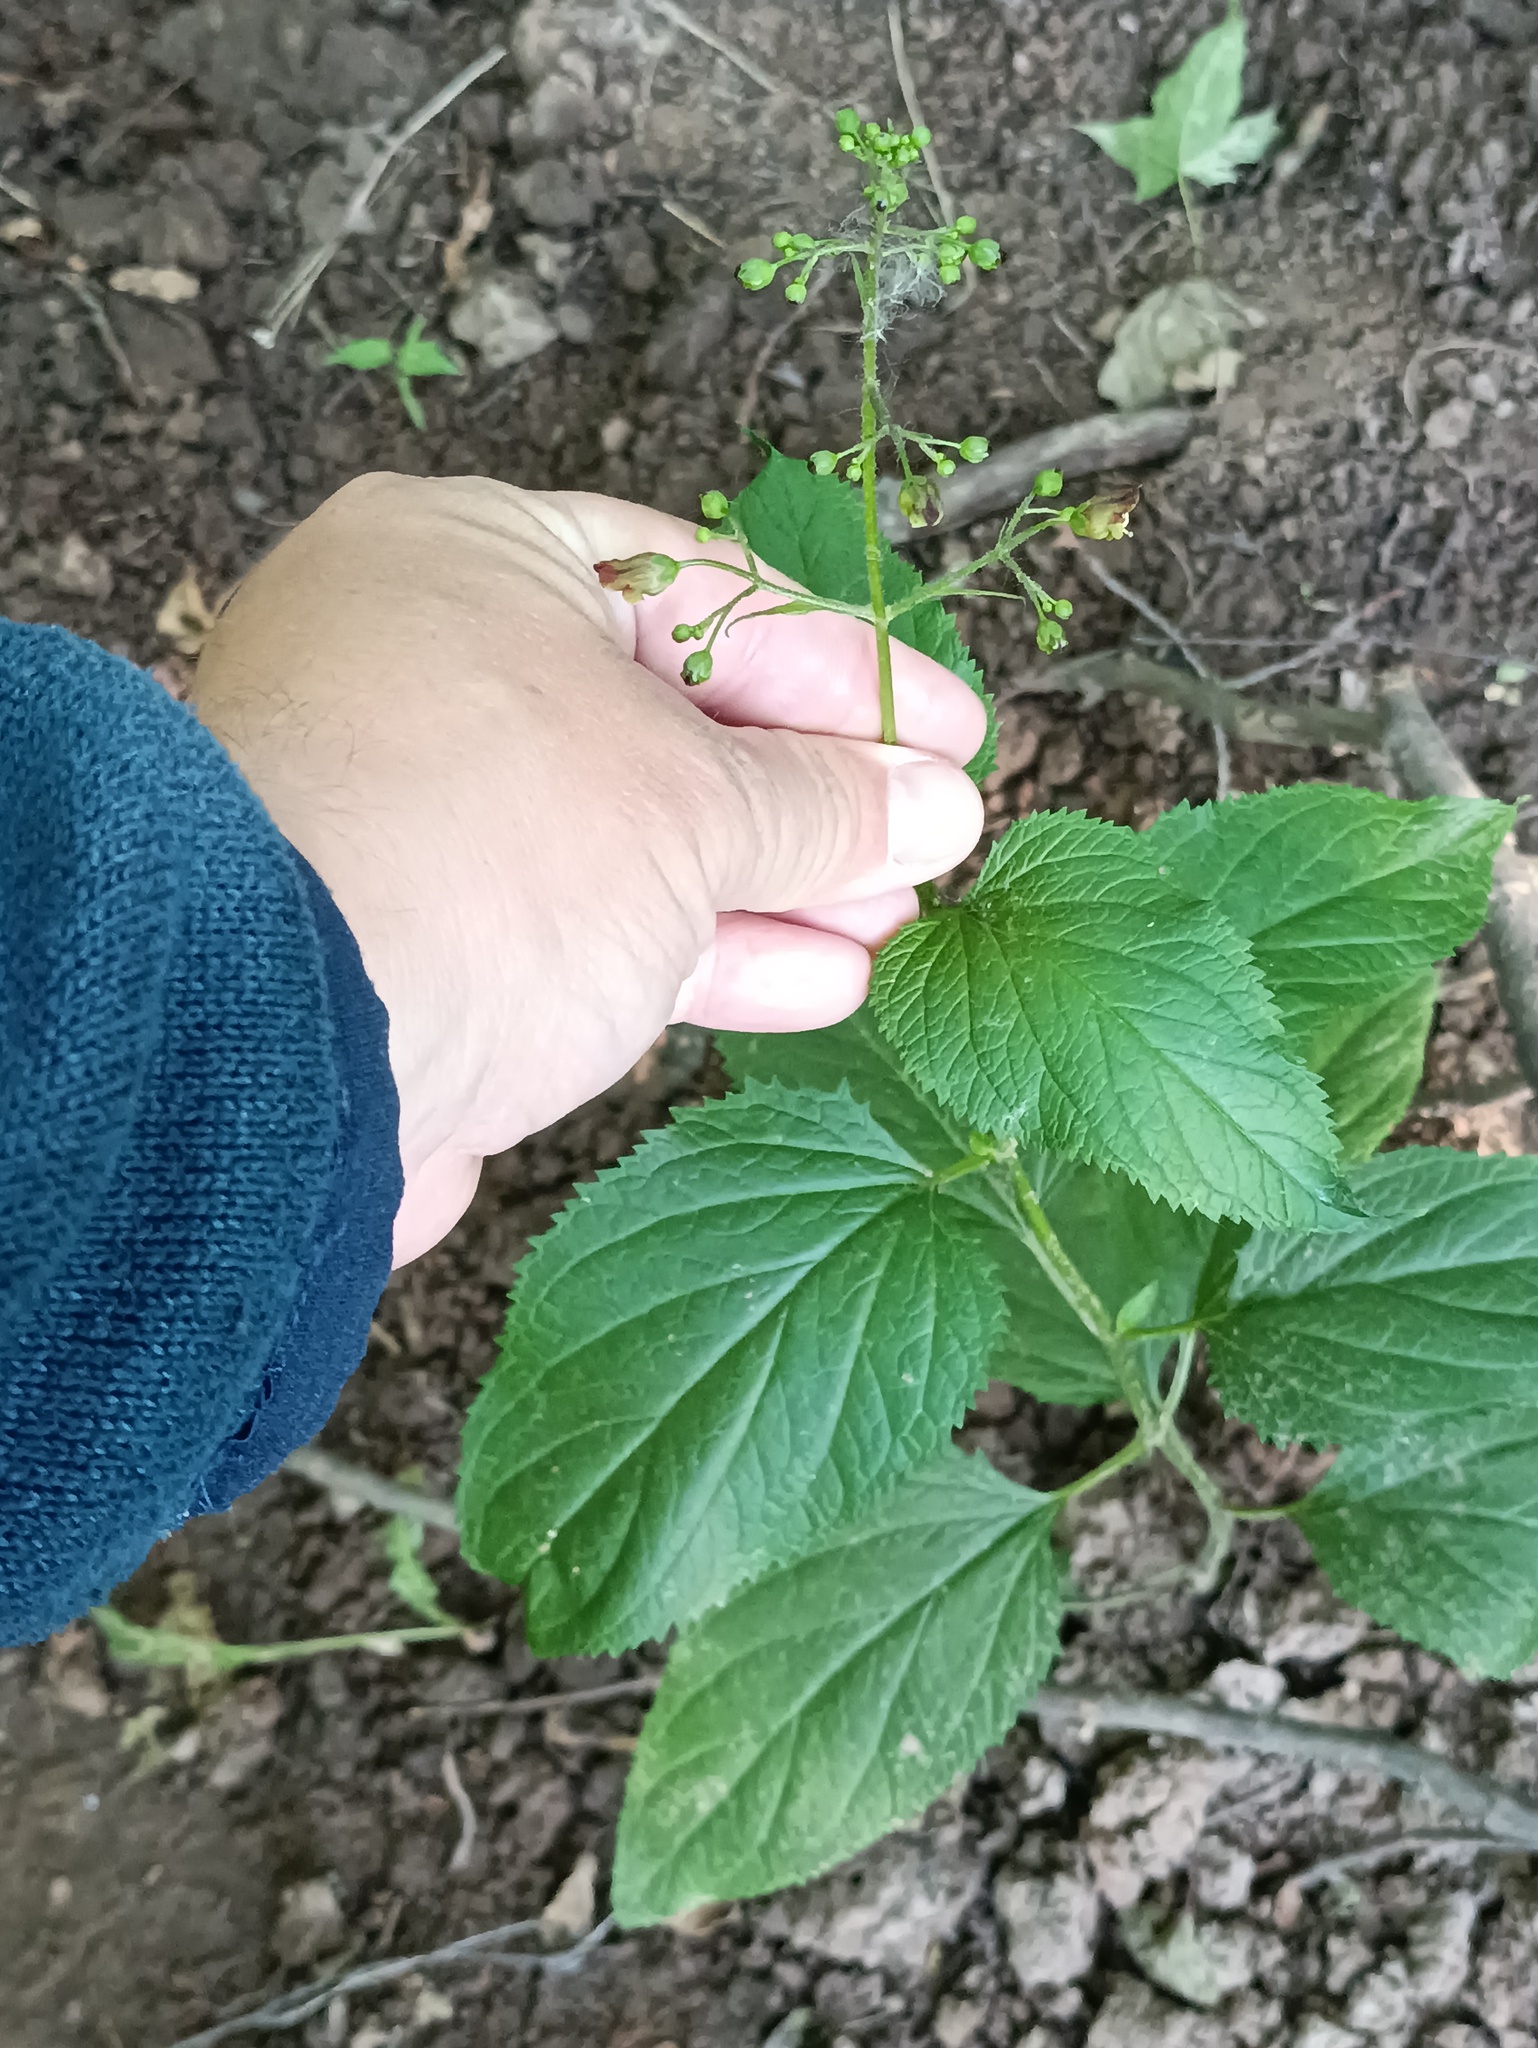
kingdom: Plantae
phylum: Tracheophyta
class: Magnoliopsida
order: Lamiales
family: Scrophulariaceae
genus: Scrophularia
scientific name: Scrophularia nodosa
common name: Common figwort
